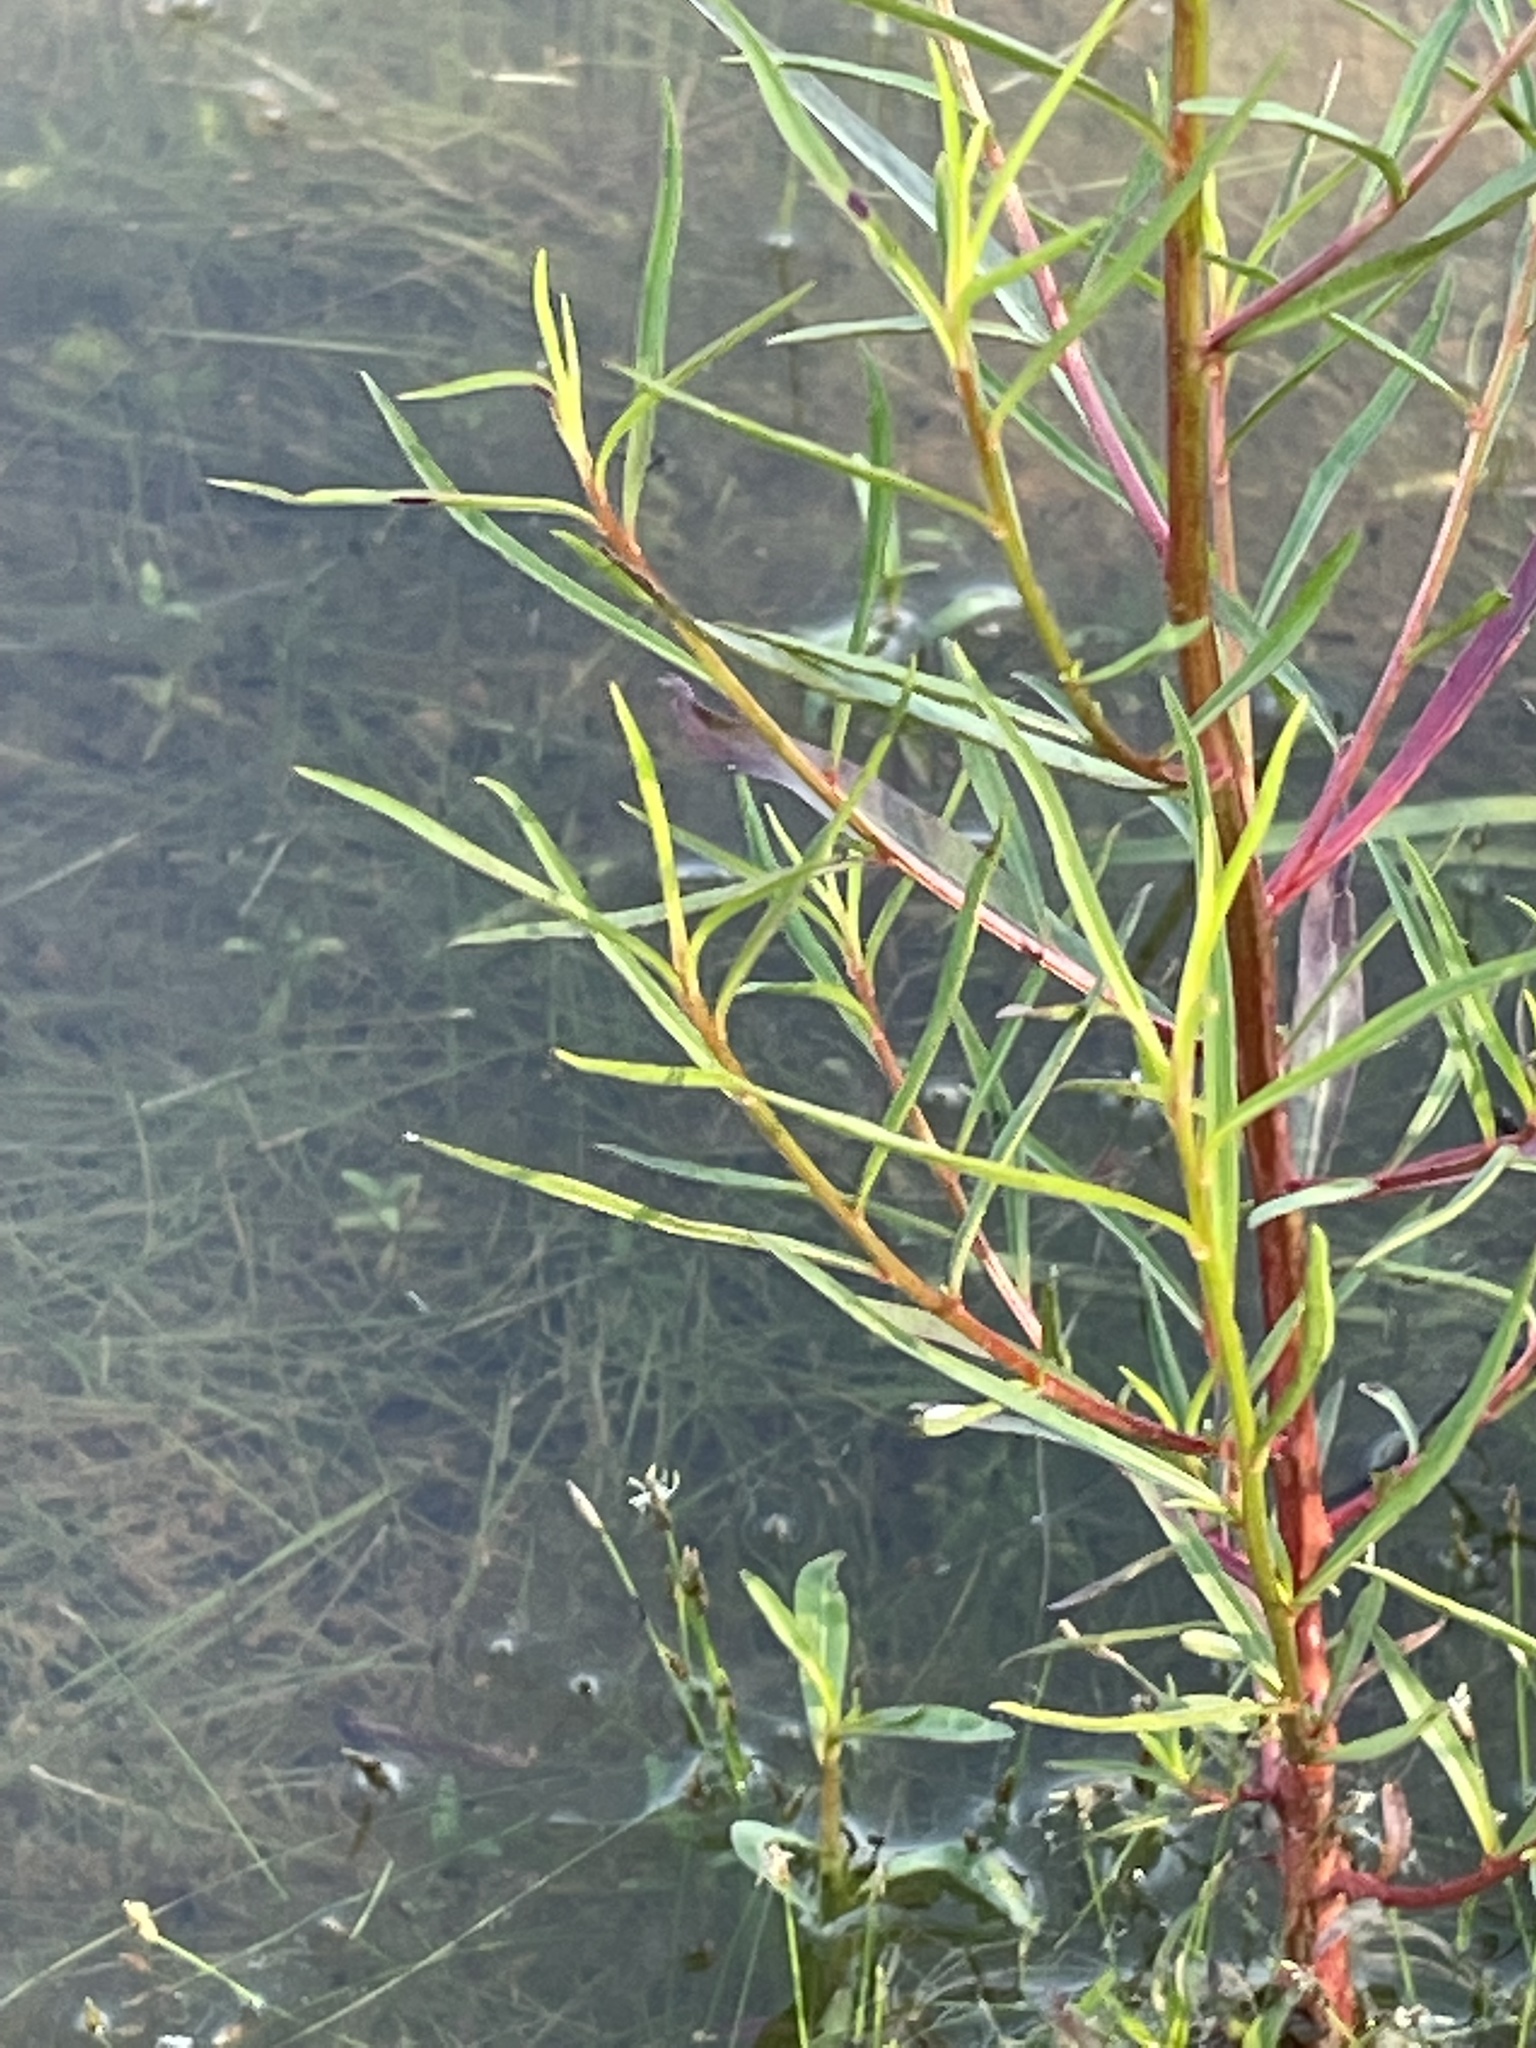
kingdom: Plantae
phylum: Tracheophyta
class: Magnoliopsida
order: Myrtales
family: Onagraceae
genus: Ludwigia
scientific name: Ludwigia linearis
